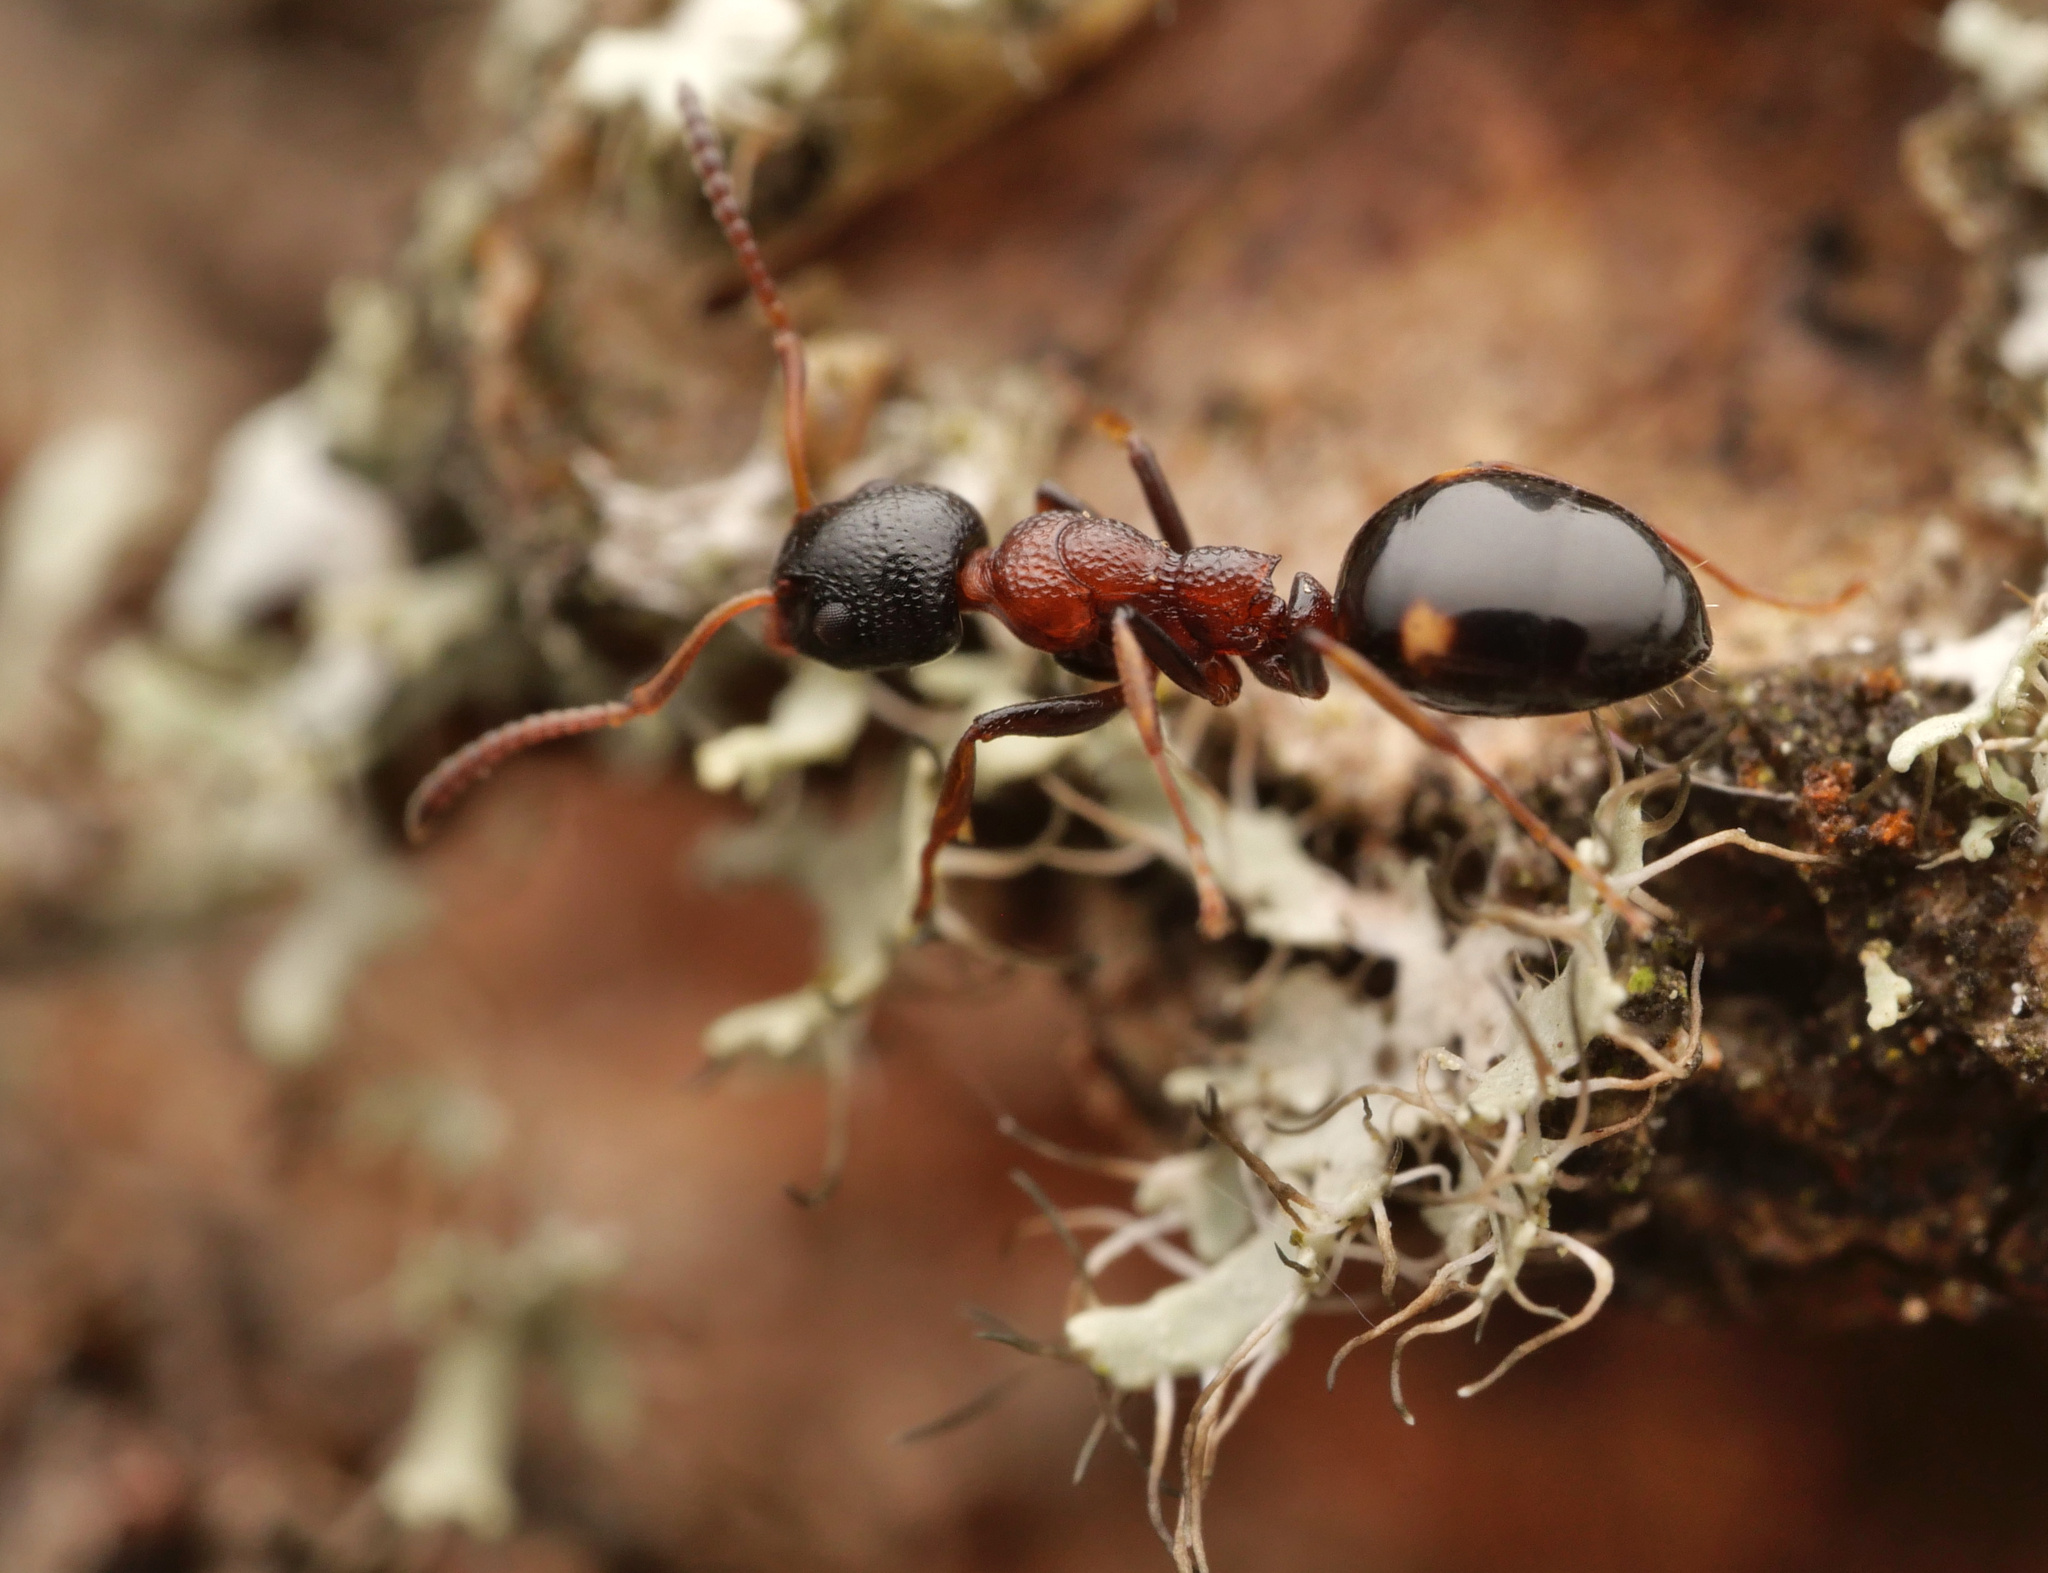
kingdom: Animalia
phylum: Arthropoda
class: Insecta
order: Hymenoptera
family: Formicidae
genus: Dolichoderus
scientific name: Dolichoderus quadripunctatus
